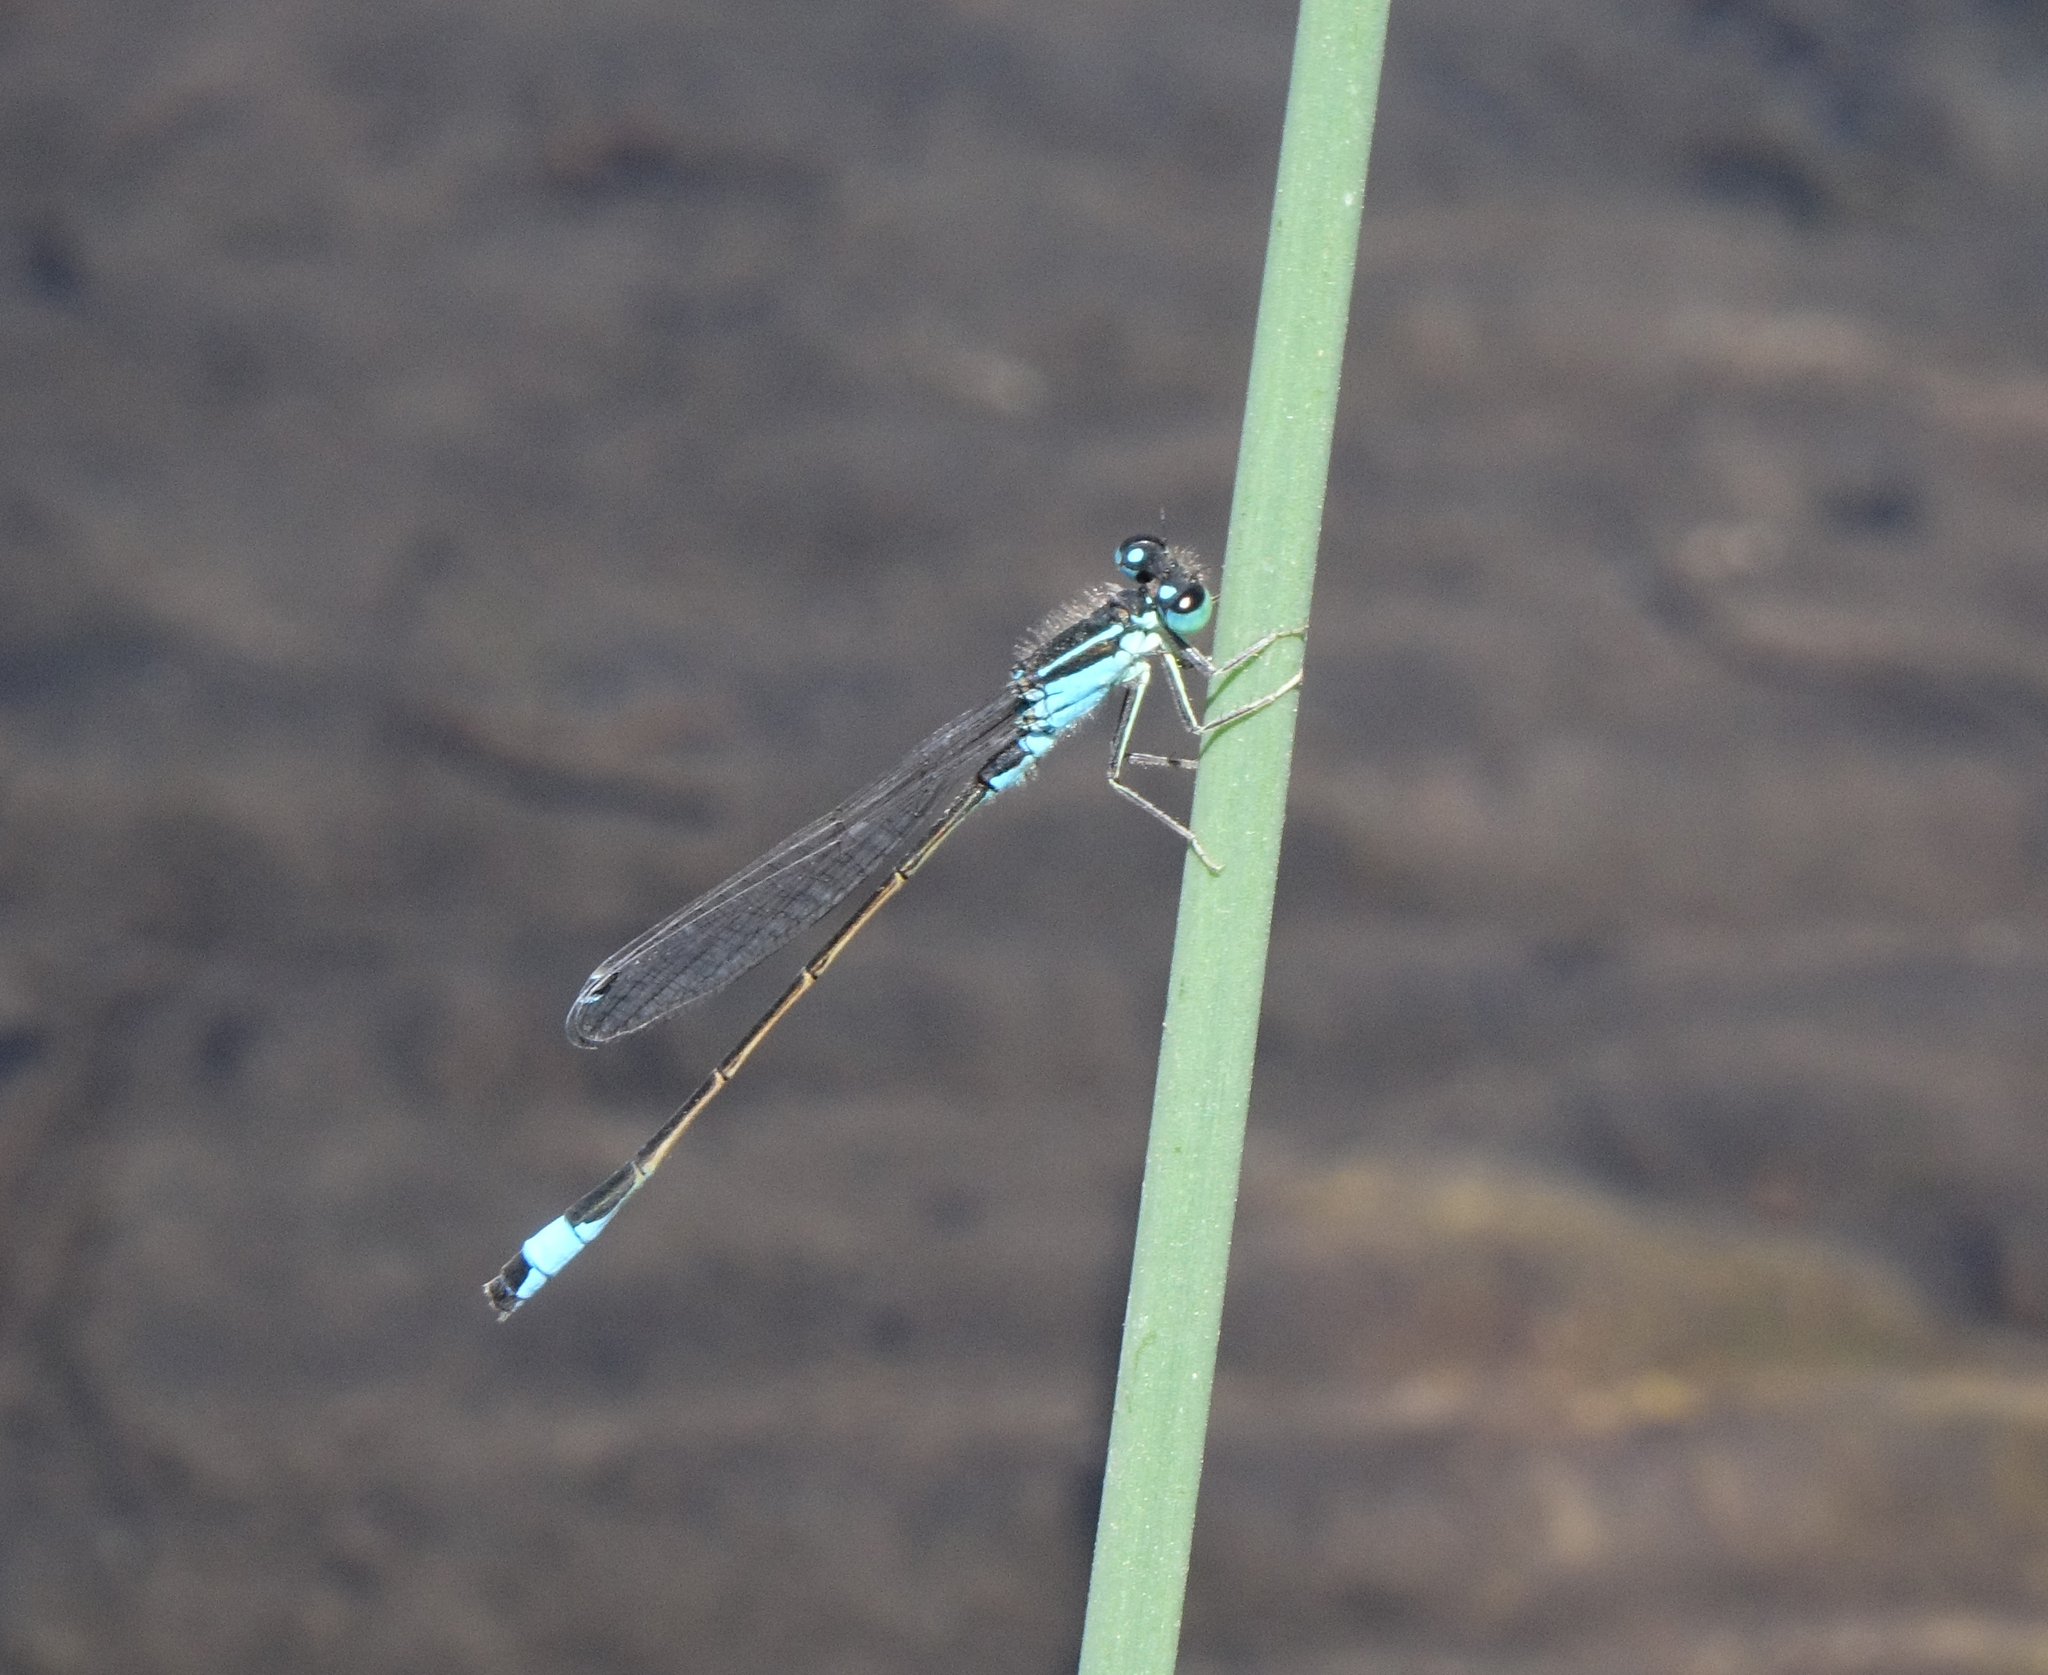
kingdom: Animalia
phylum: Arthropoda
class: Insecta
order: Odonata
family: Coenagrionidae
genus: Ischnura
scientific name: Ischnura elegans
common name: Blue-tailed damselfly
